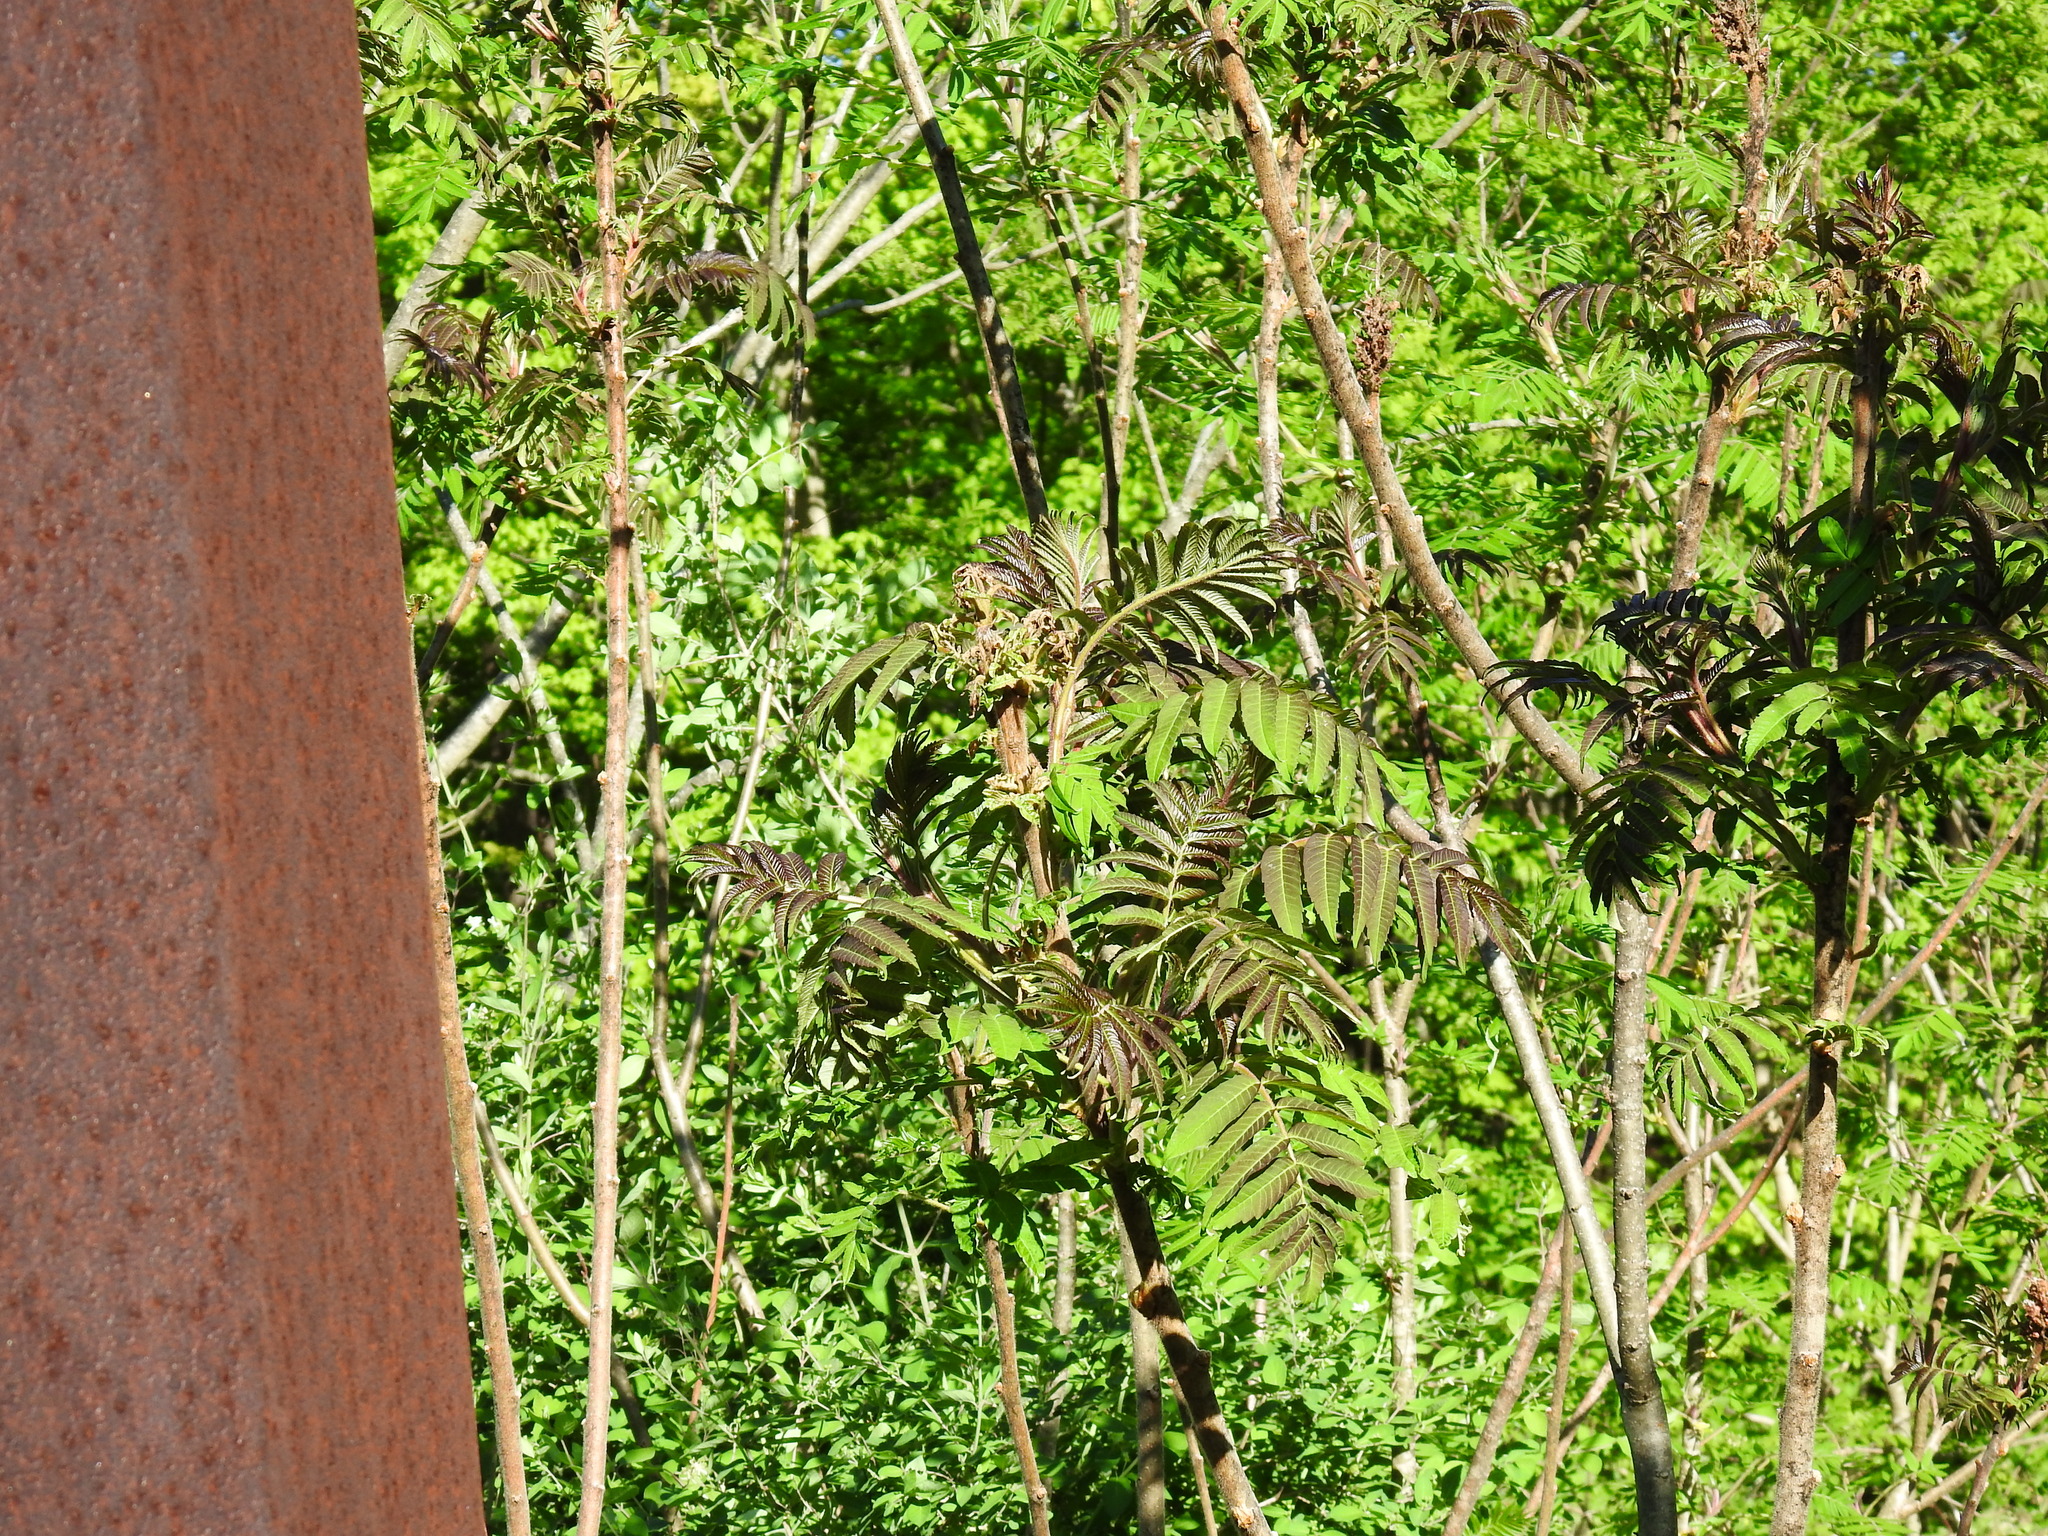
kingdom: Plantae
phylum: Tracheophyta
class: Magnoliopsida
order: Sapindales
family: Anacardiaceae
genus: Rhus
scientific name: Rhus typhina
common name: Staghorn sumac
